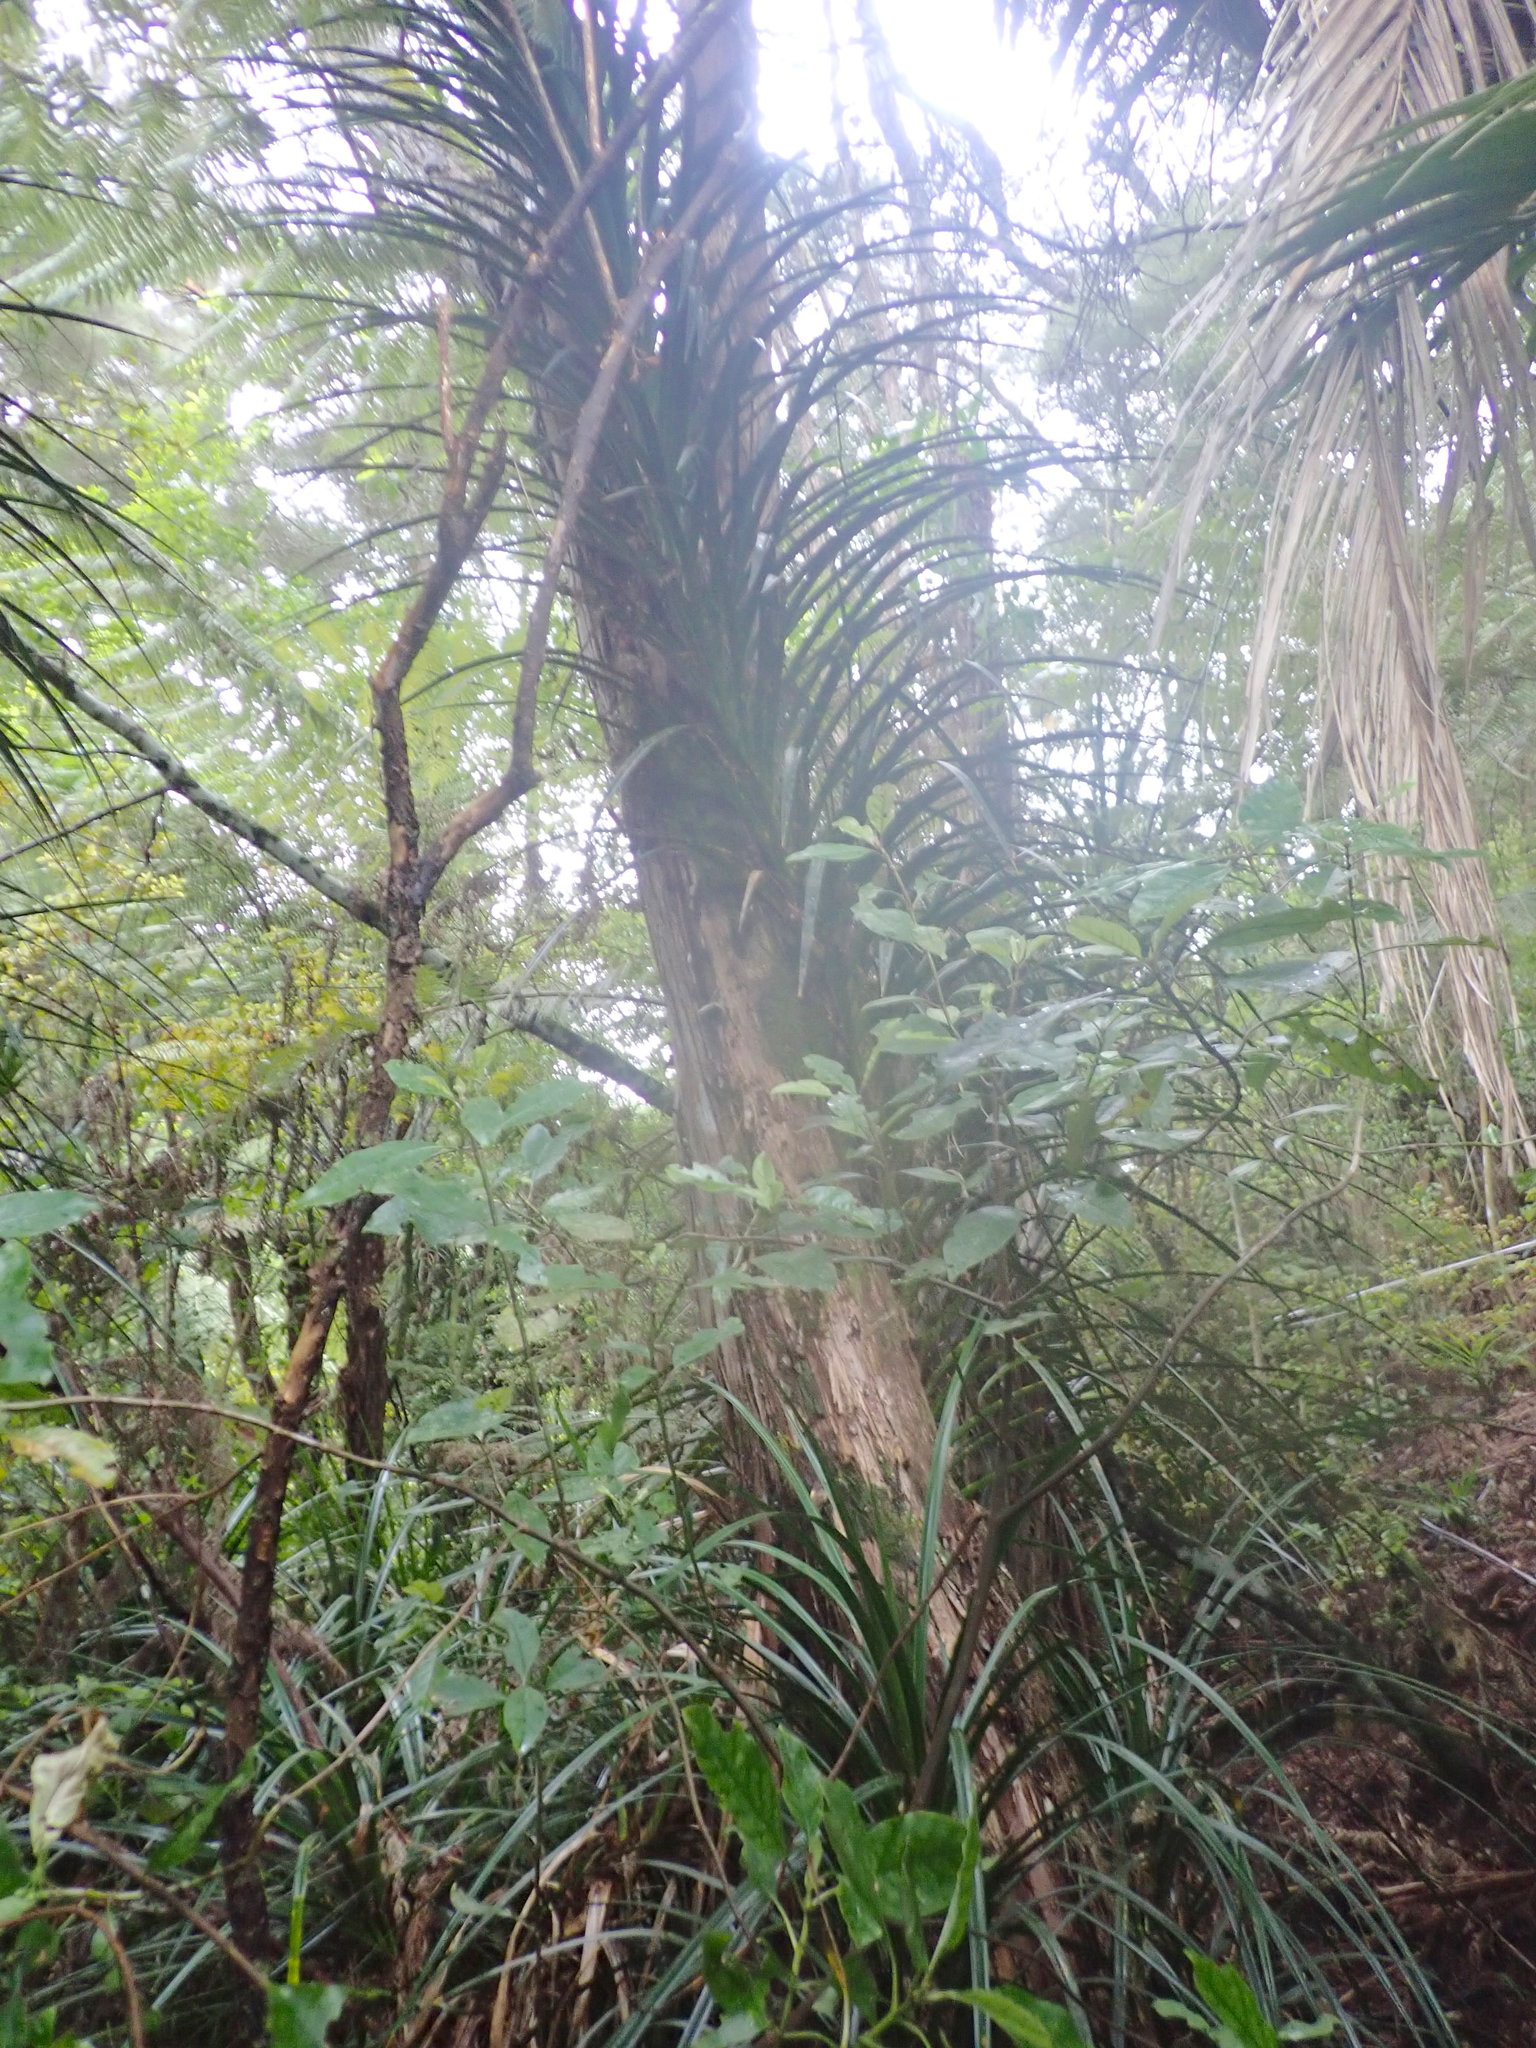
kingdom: Plantae
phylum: Tracheophyta
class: Liliopsida
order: Pandanales
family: Pandanaceae
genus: Freycinetia
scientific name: Freycinetia banksii
